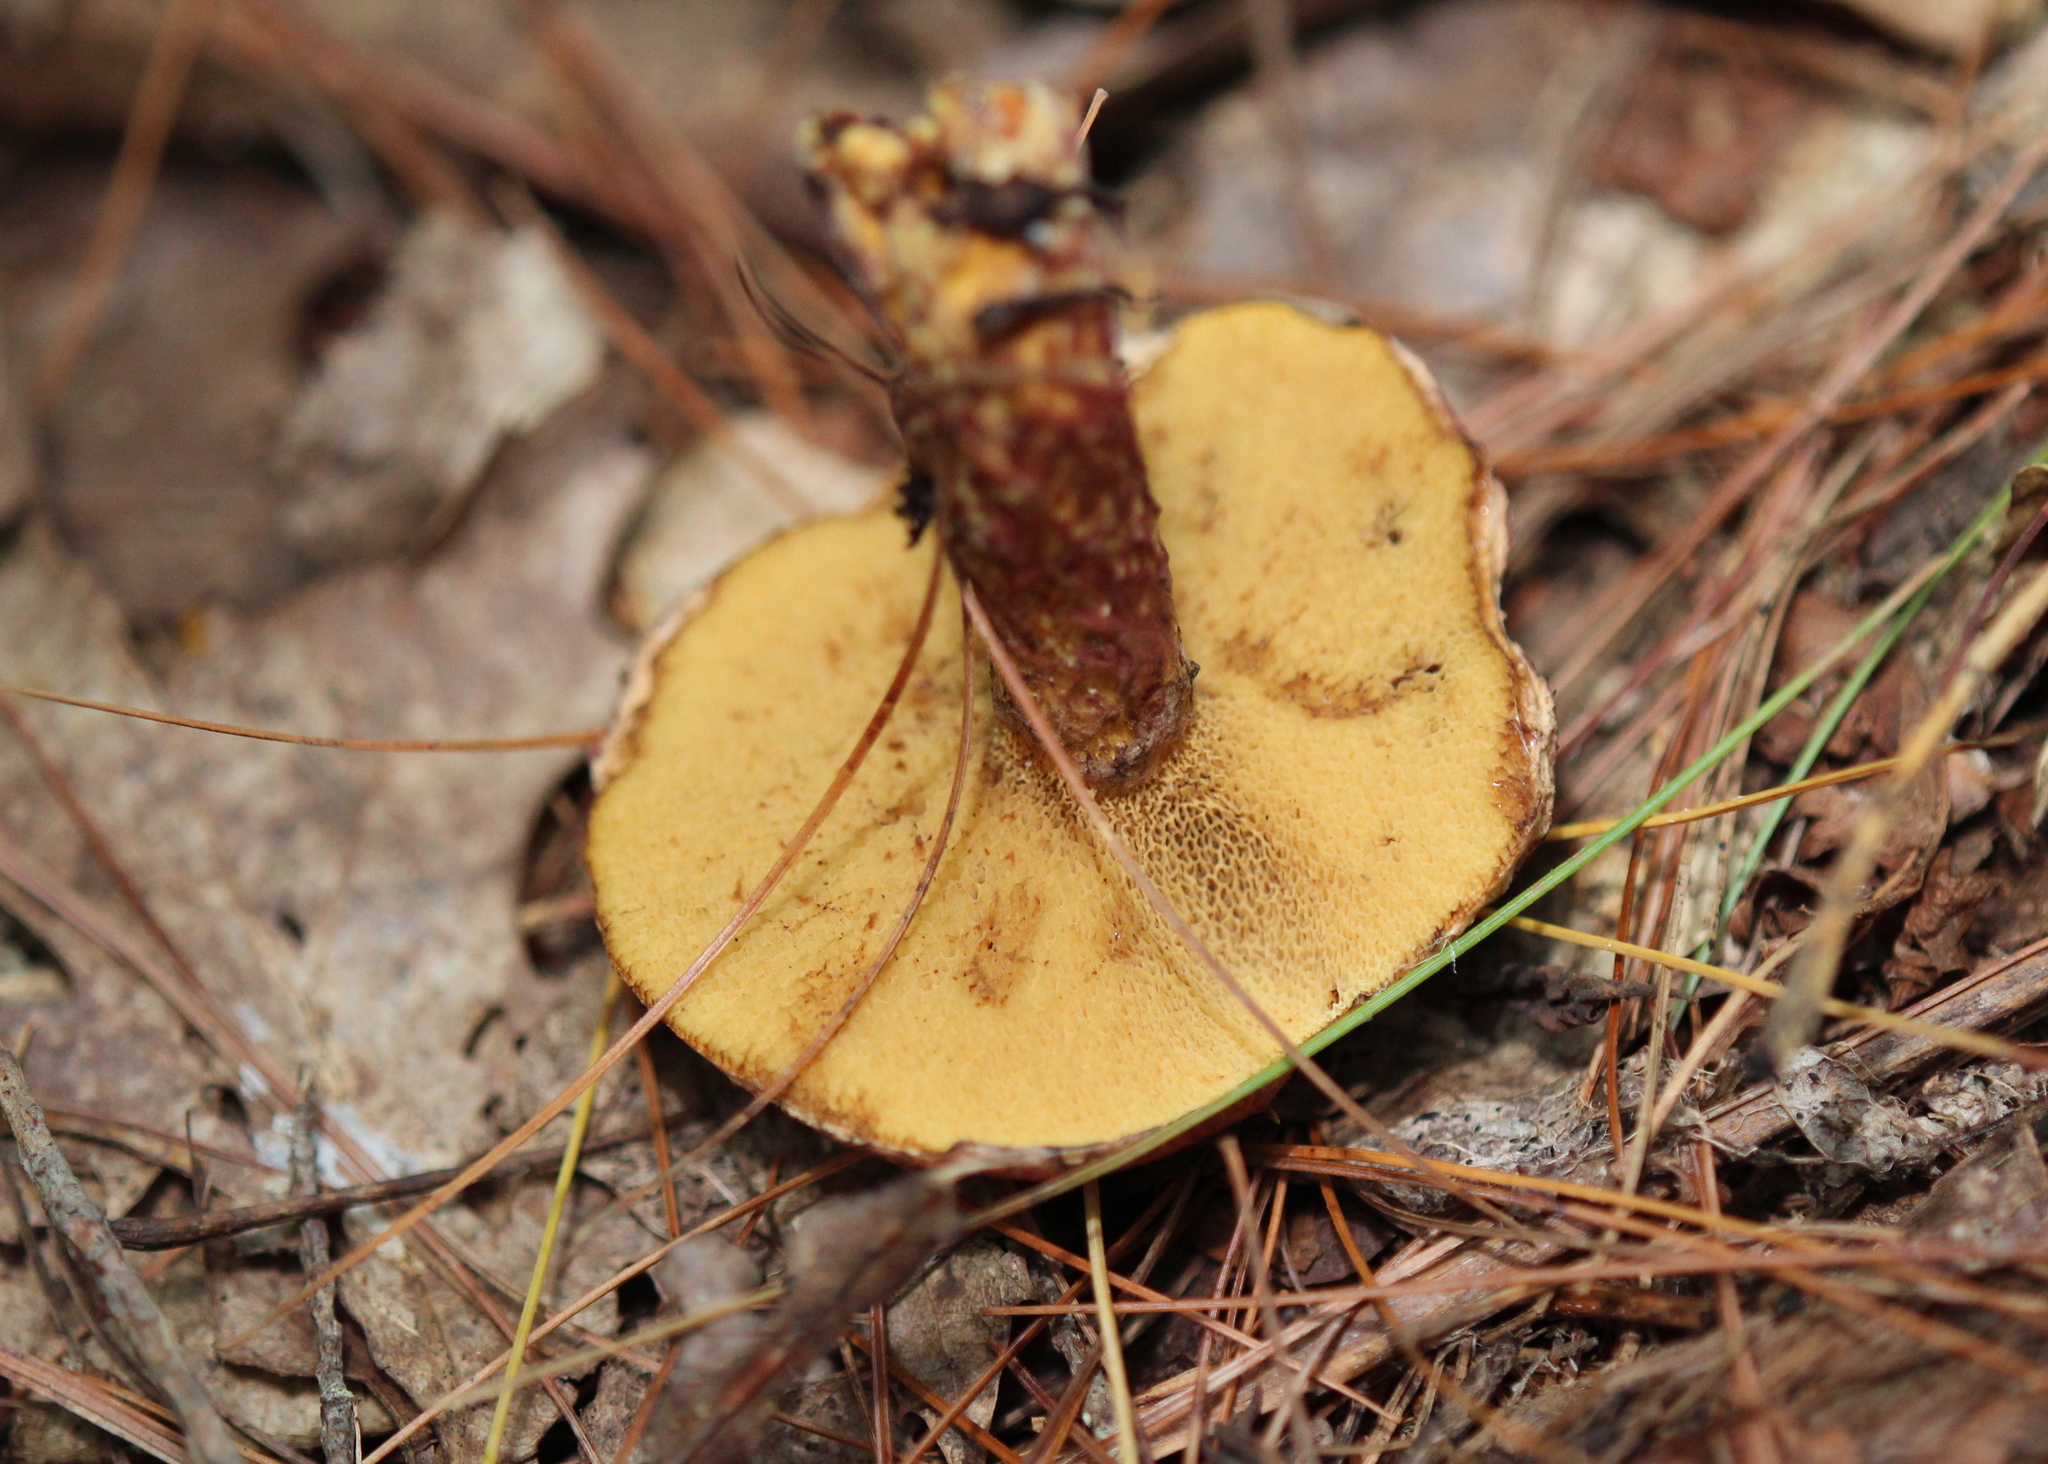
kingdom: Fungi
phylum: Basidiomycota
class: Agaricomycetes
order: Boletales
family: Suillaceae
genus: Suillus
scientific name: Suillus spraguei
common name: Painted suillus
